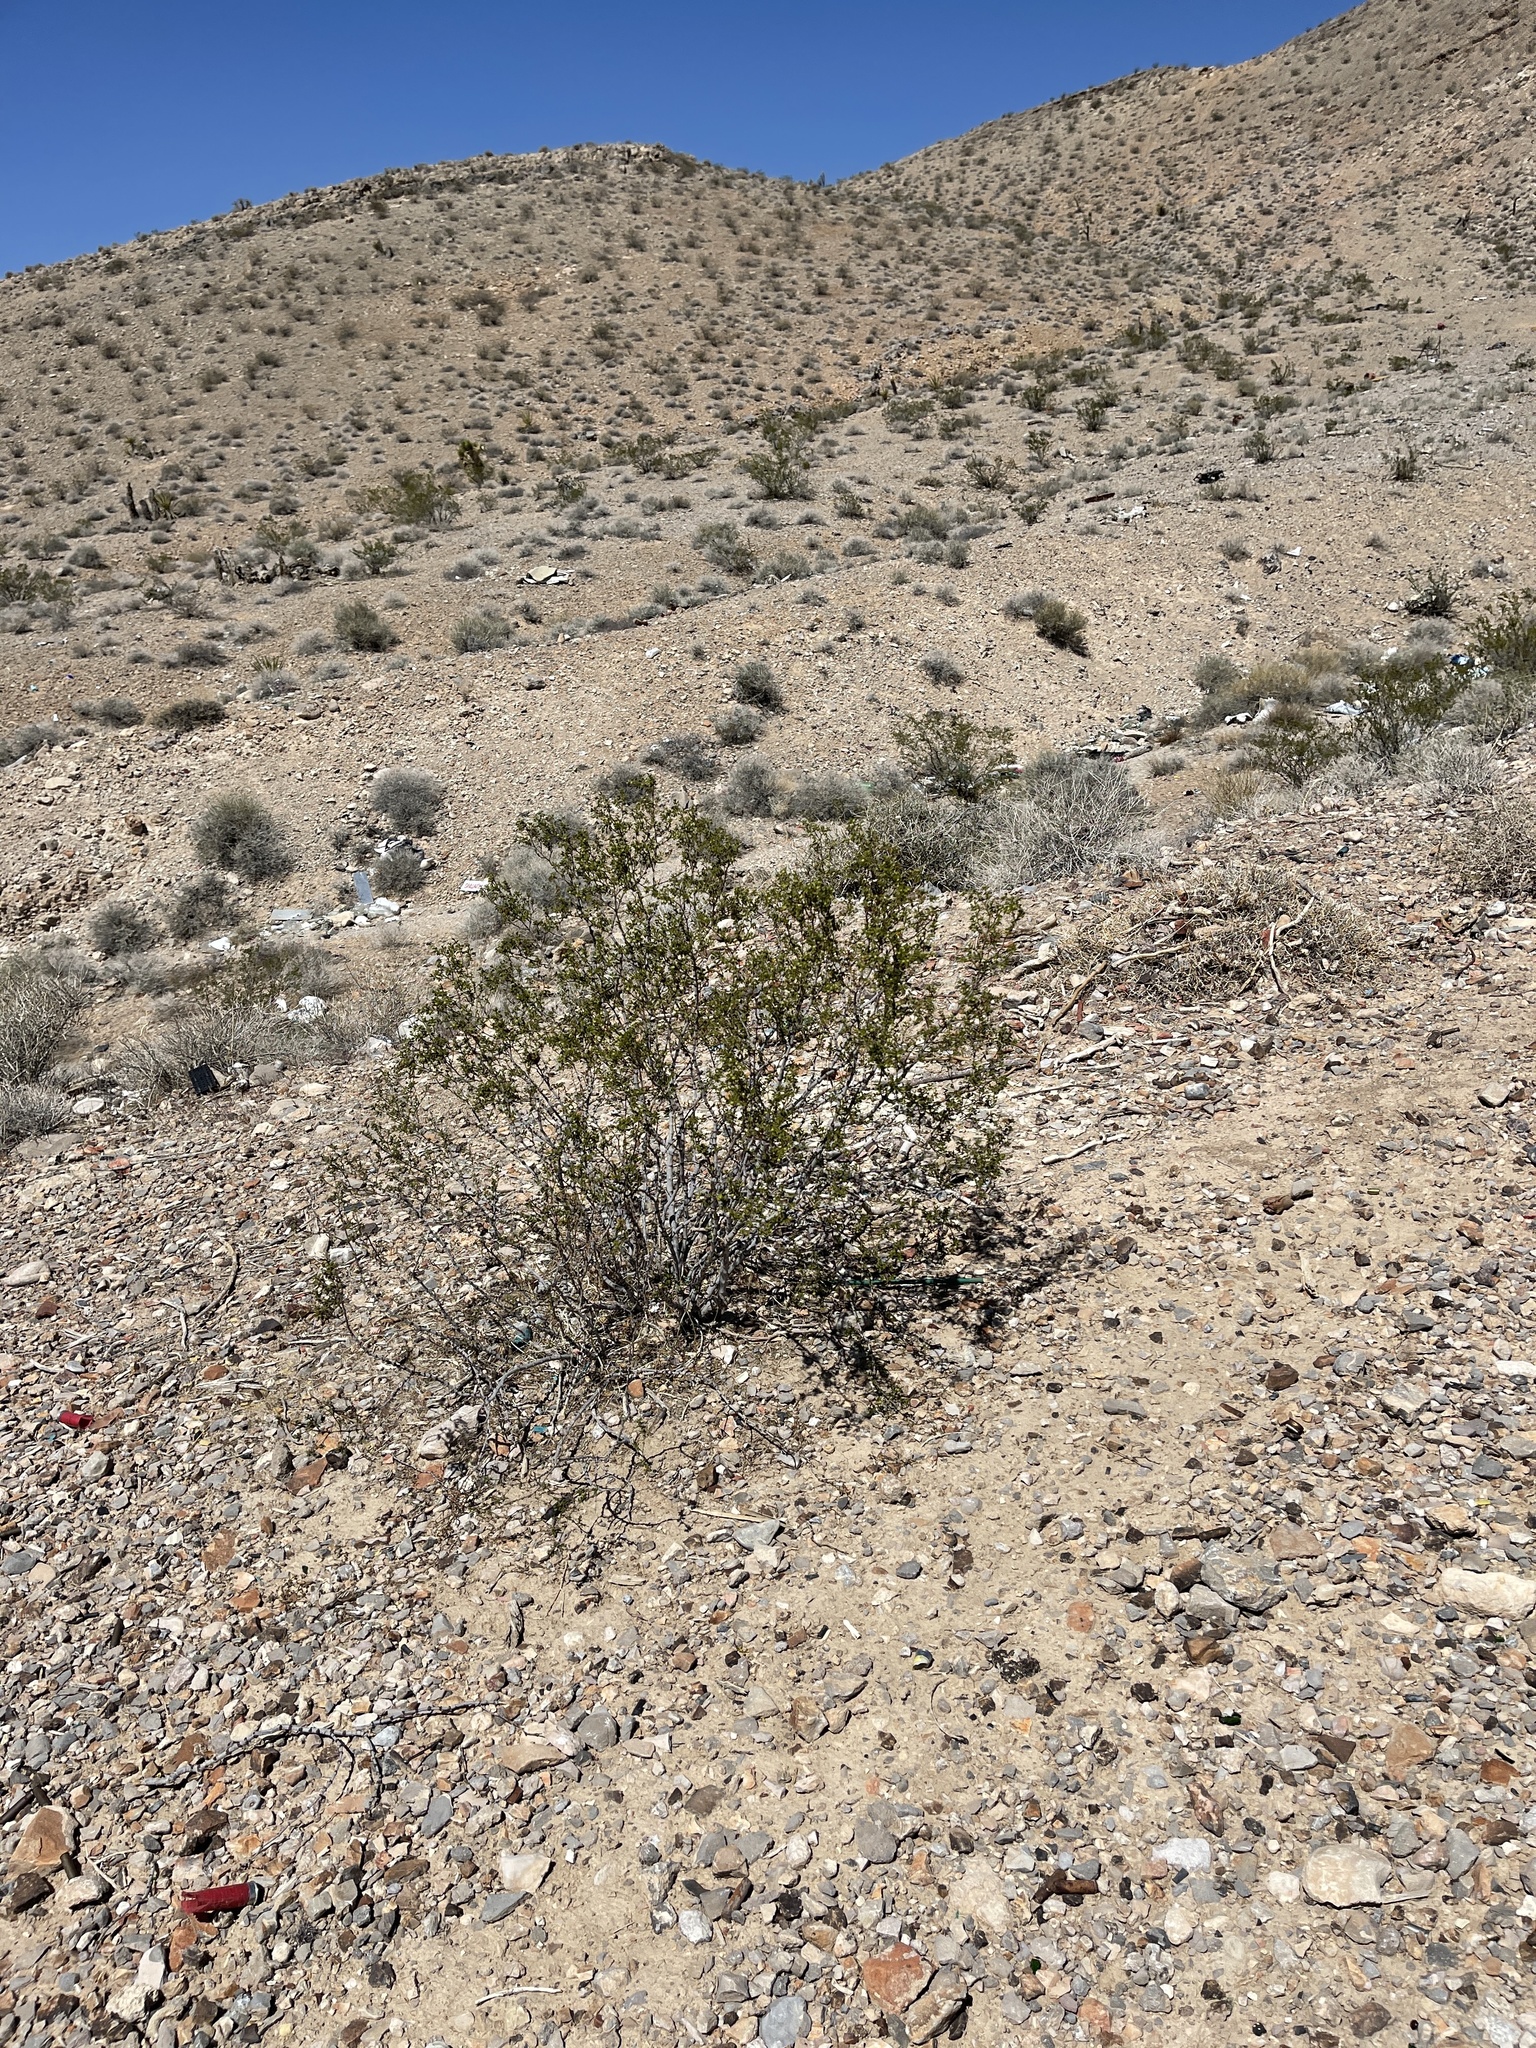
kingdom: Plantae
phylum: Tracheophyta
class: Magnoliopsida
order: Zygophyllales
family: Zygophyllaceae
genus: Larrea
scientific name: Larrea tridentata
